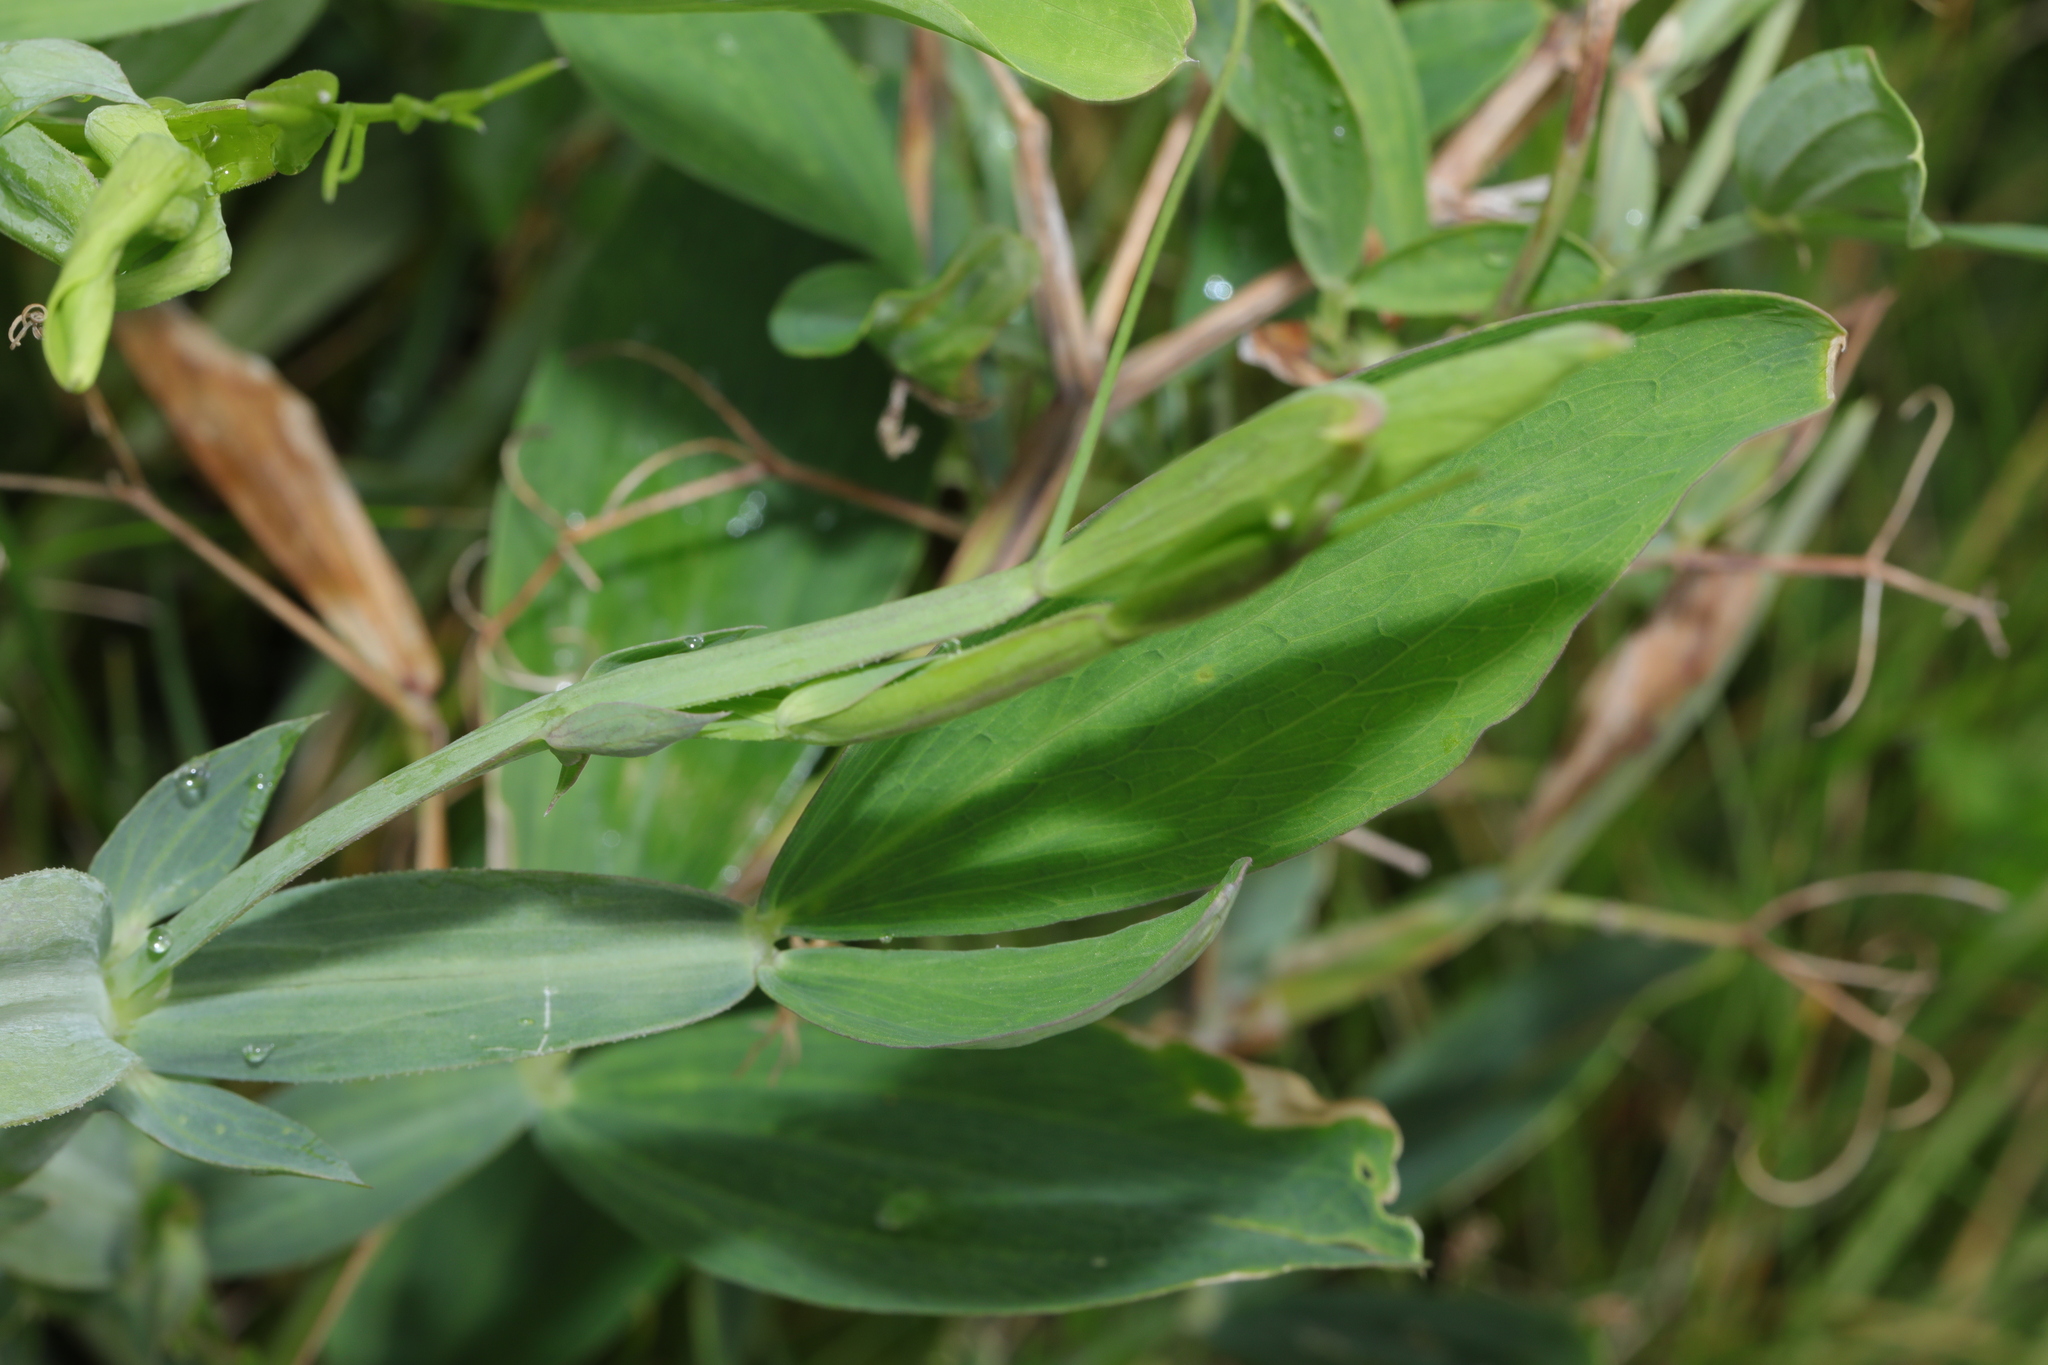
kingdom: Plantae
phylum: Tracheophyta
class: Magnoliopsida
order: Fabales
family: Fabaceae
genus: Lathyrus
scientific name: Lathyrus latifolius
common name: Perennial pea
